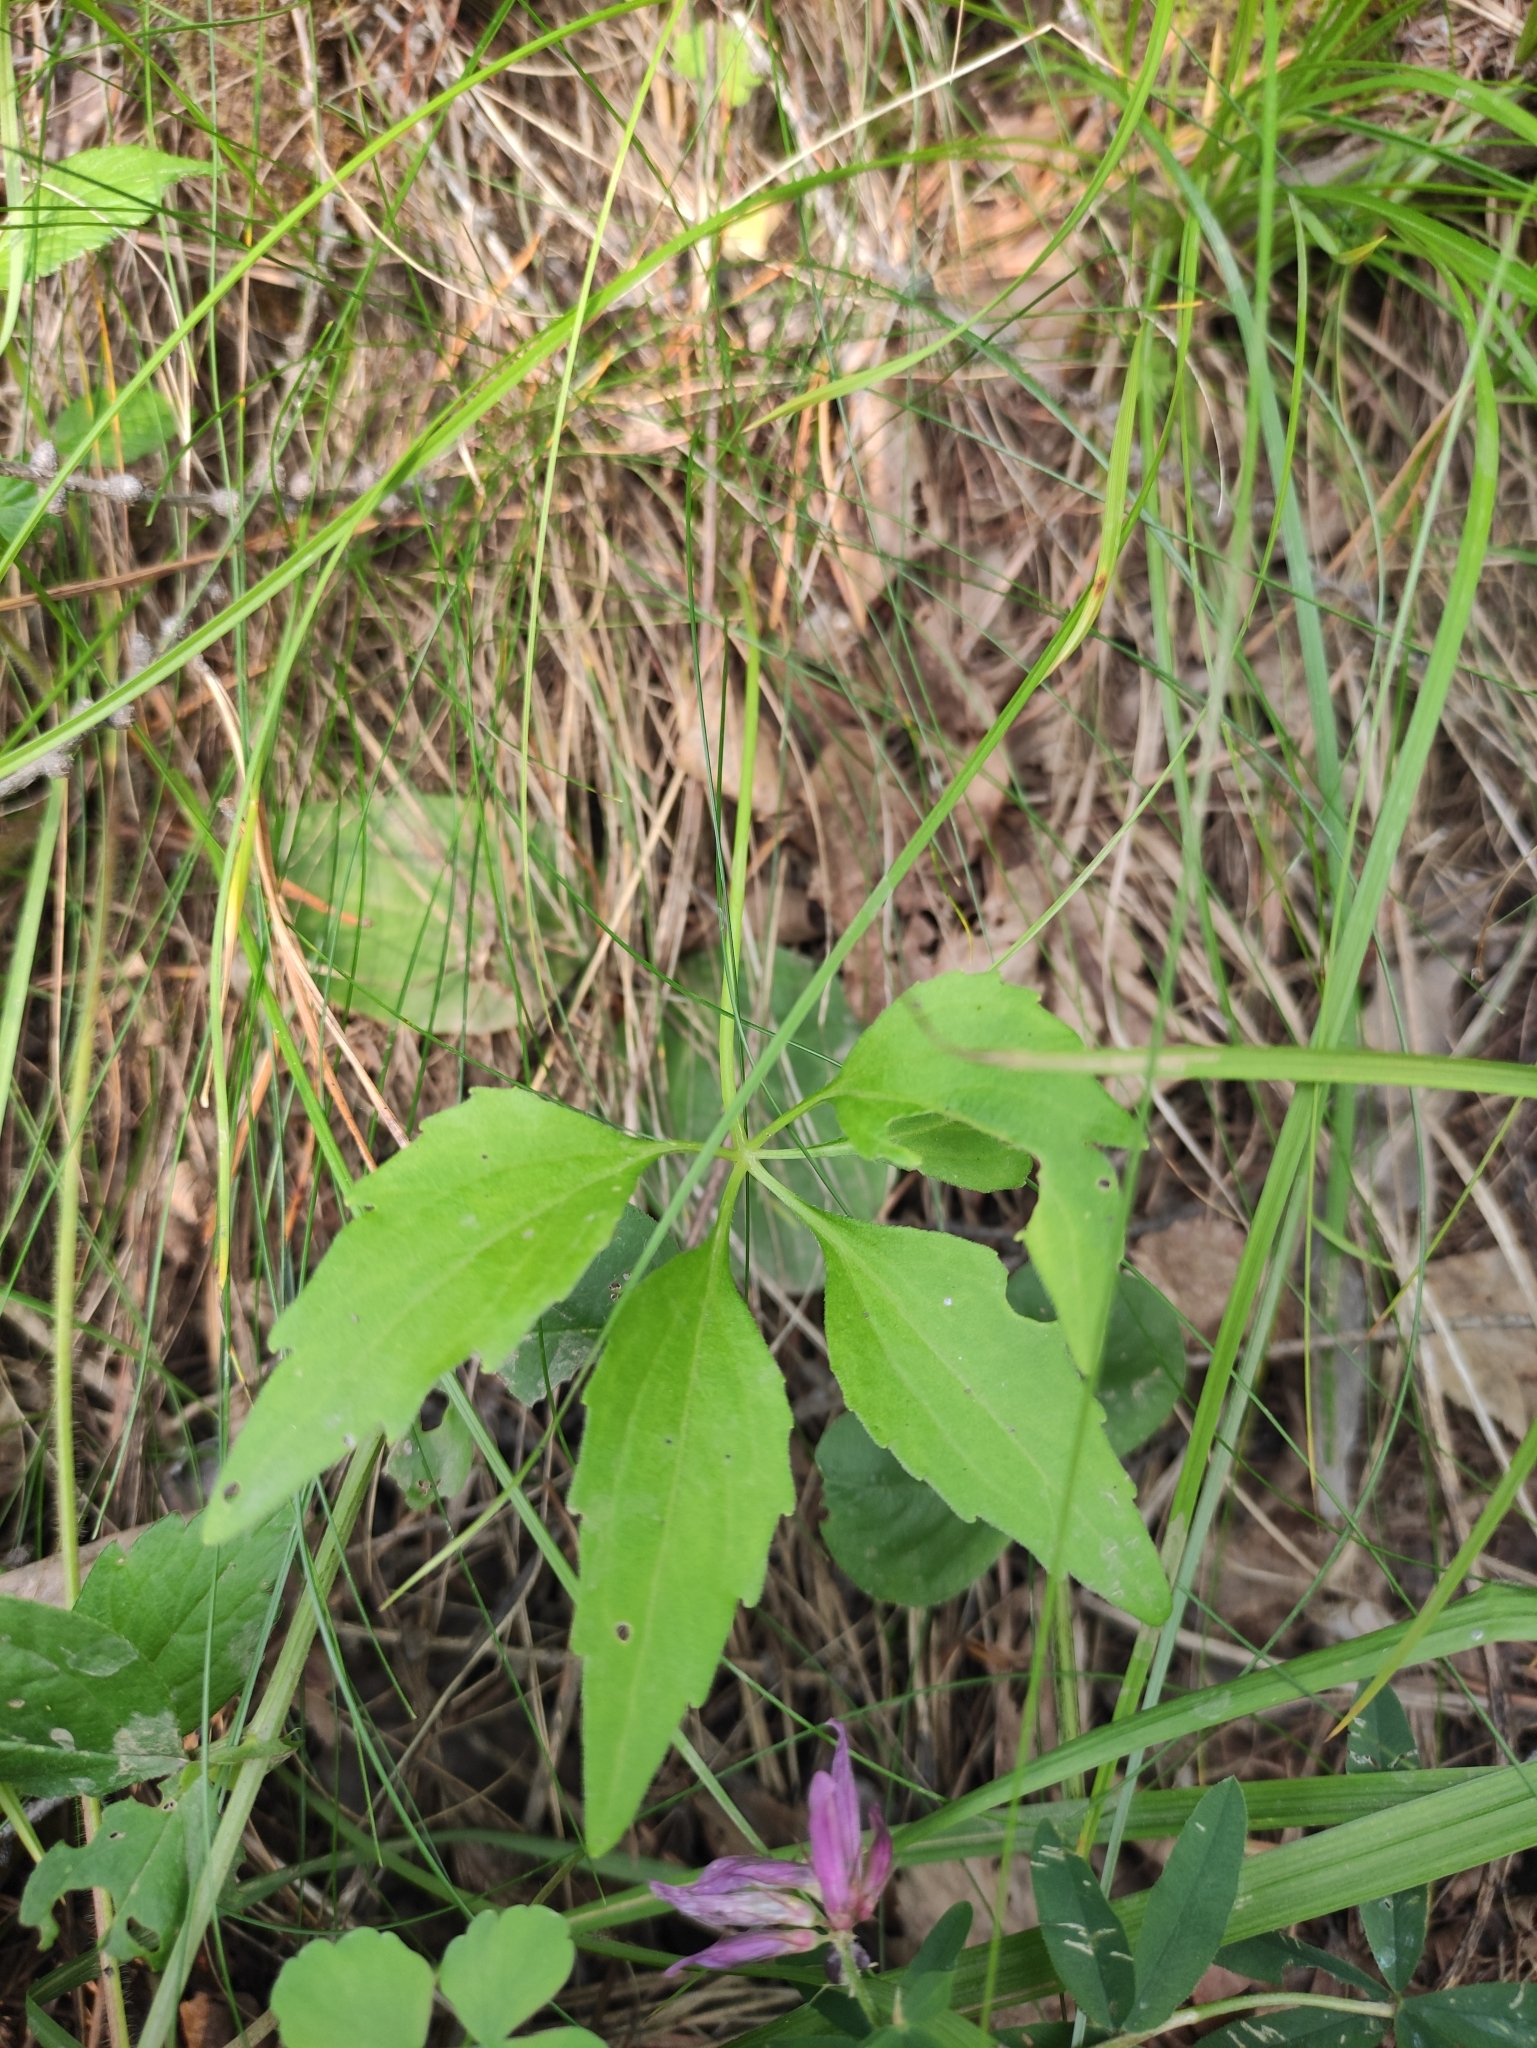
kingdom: Plantae
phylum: Tracheophyta
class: Magnoliopsida
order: Malpighiales
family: Violaceae
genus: Viola
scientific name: Viola dactyloides
